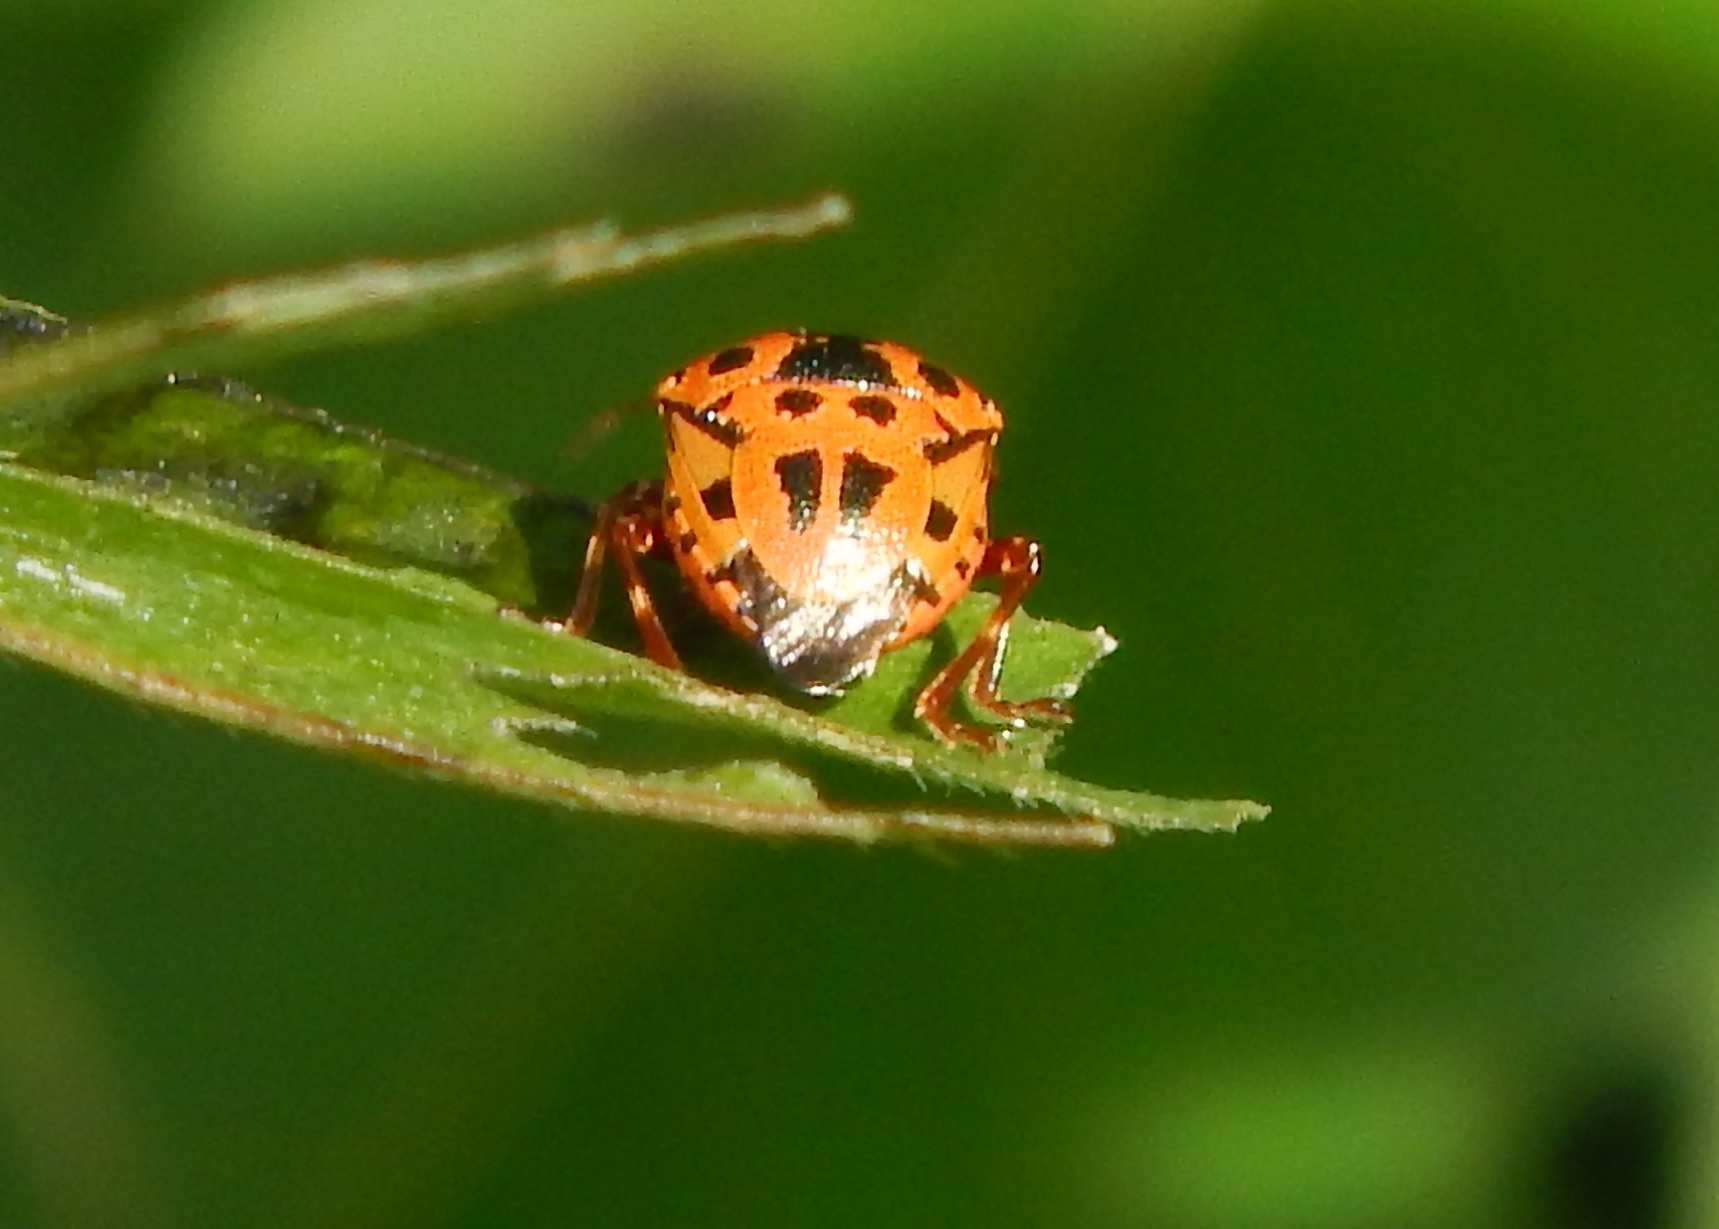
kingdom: Animalia
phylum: Arthropoda
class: Insecta
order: Hemiptera
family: Pentatomidae
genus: Stiretrus
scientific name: Stiretrus anchorago
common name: Anchor stink bug
